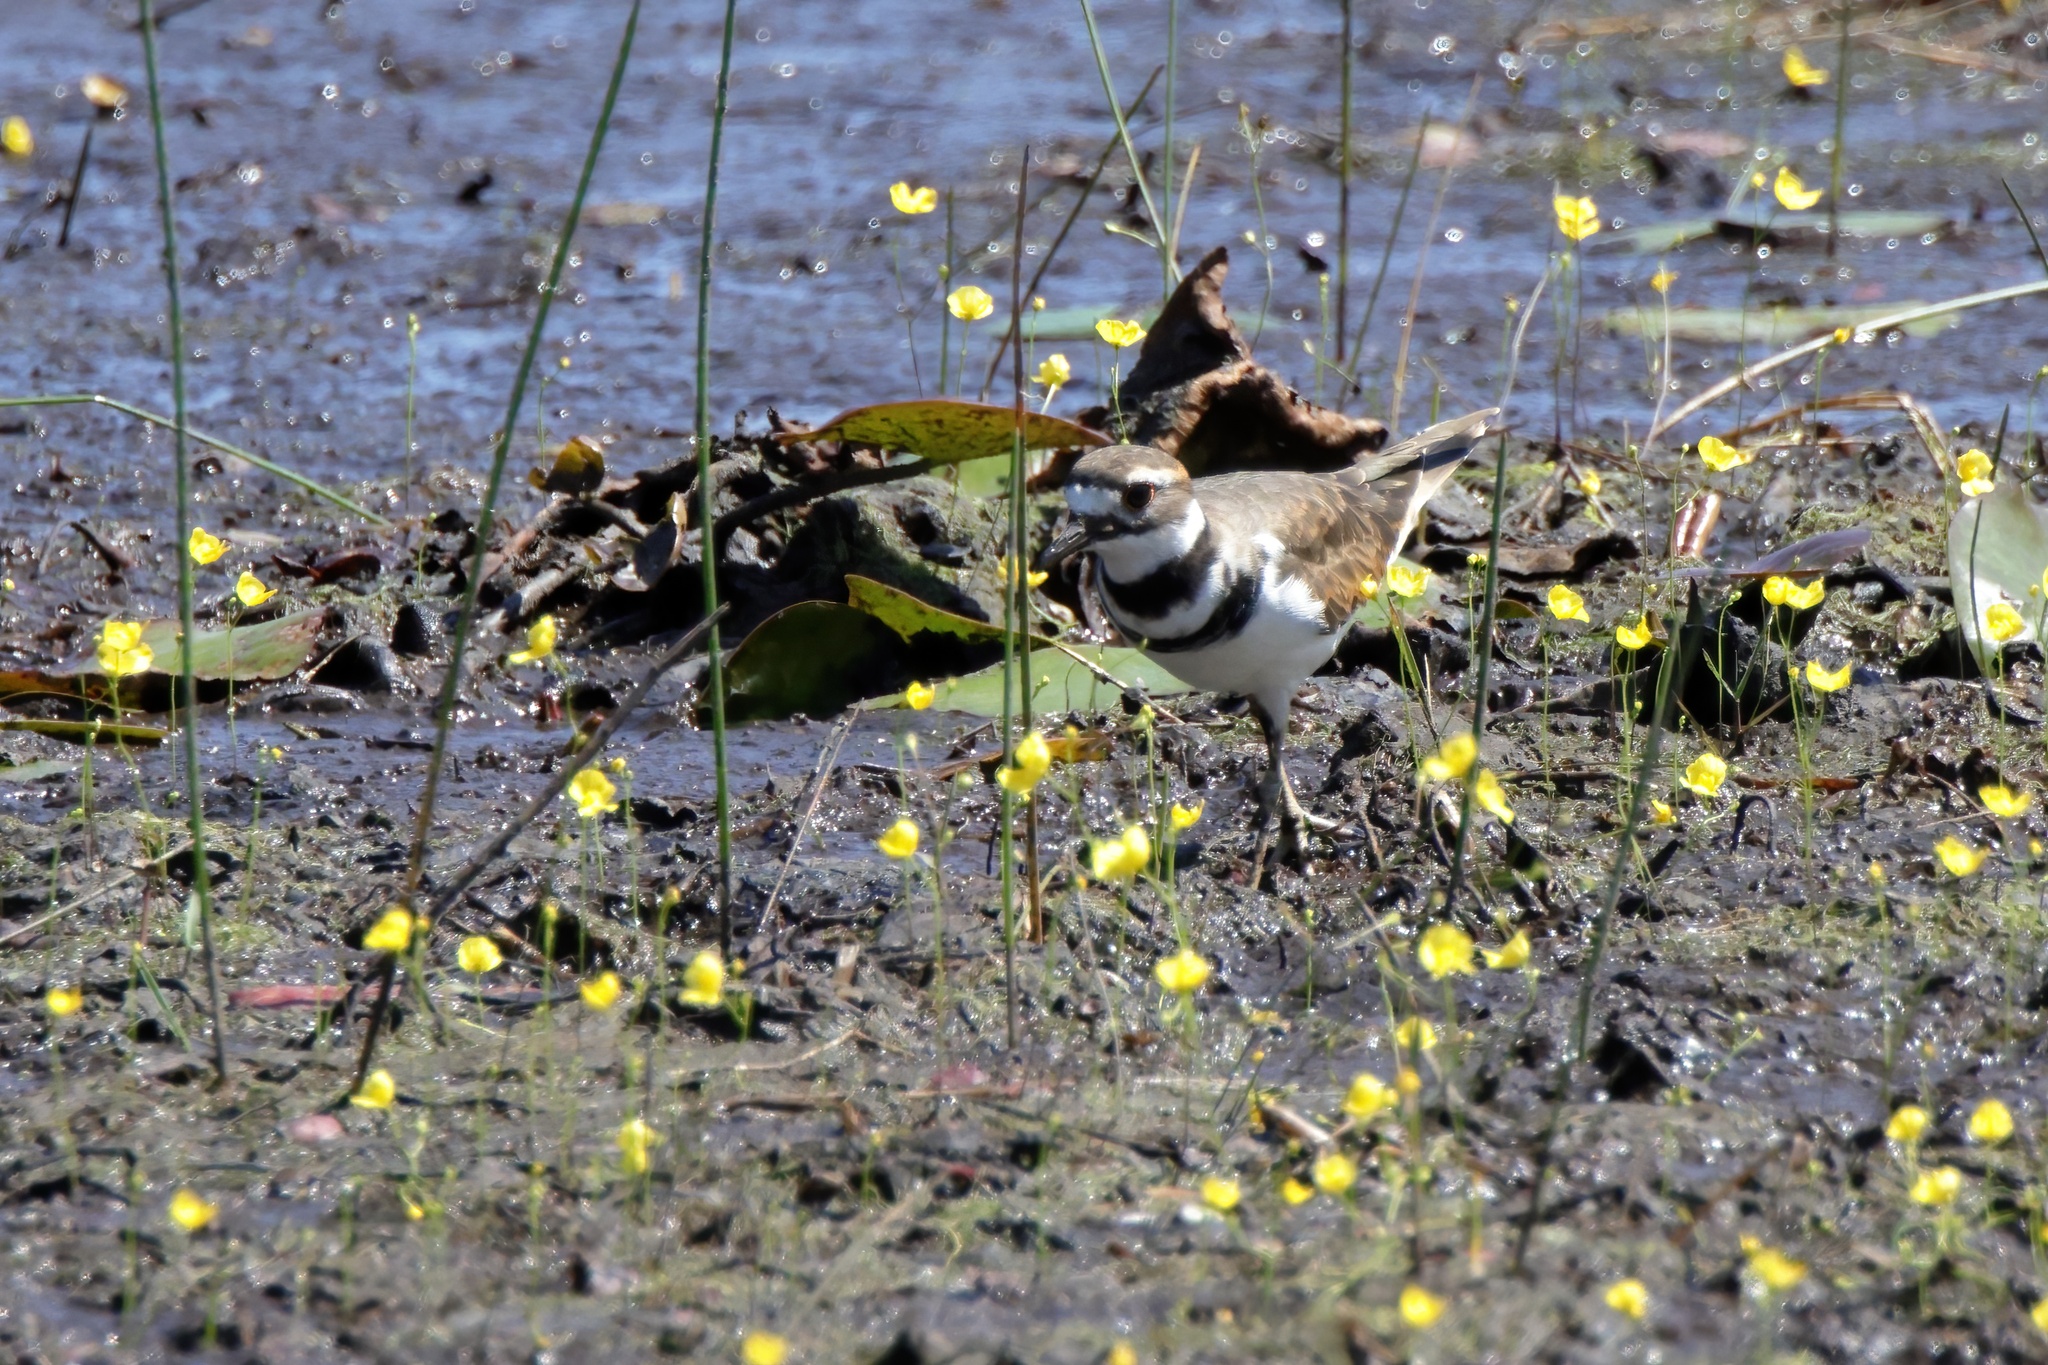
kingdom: Animalia
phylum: Chordata
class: Aves
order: Charadriiformes
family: Charadriidae
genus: Charadrius
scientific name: Charadrius vociferus
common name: Killdeer
